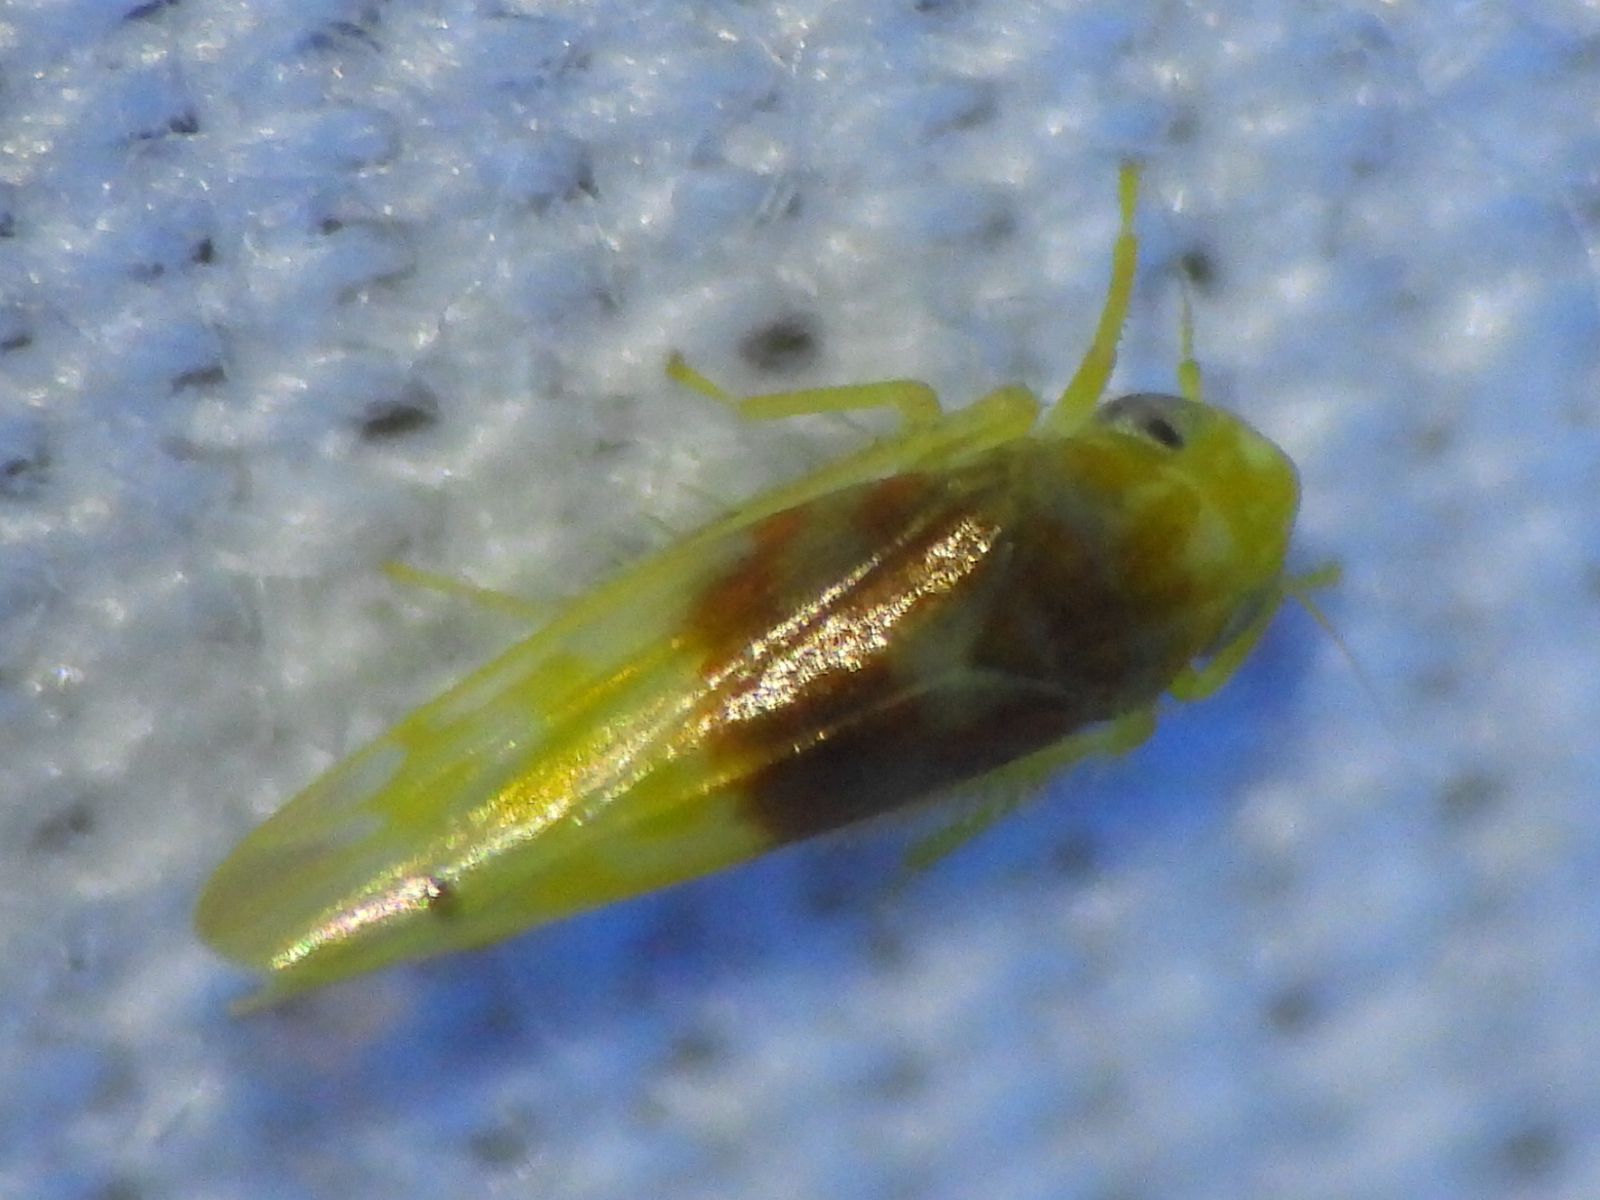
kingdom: Animalia
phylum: Arthropoda
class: Insecta
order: Hemiptera
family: Cicadellidae
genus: Eratoneura
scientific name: Eratoneura basilaris
